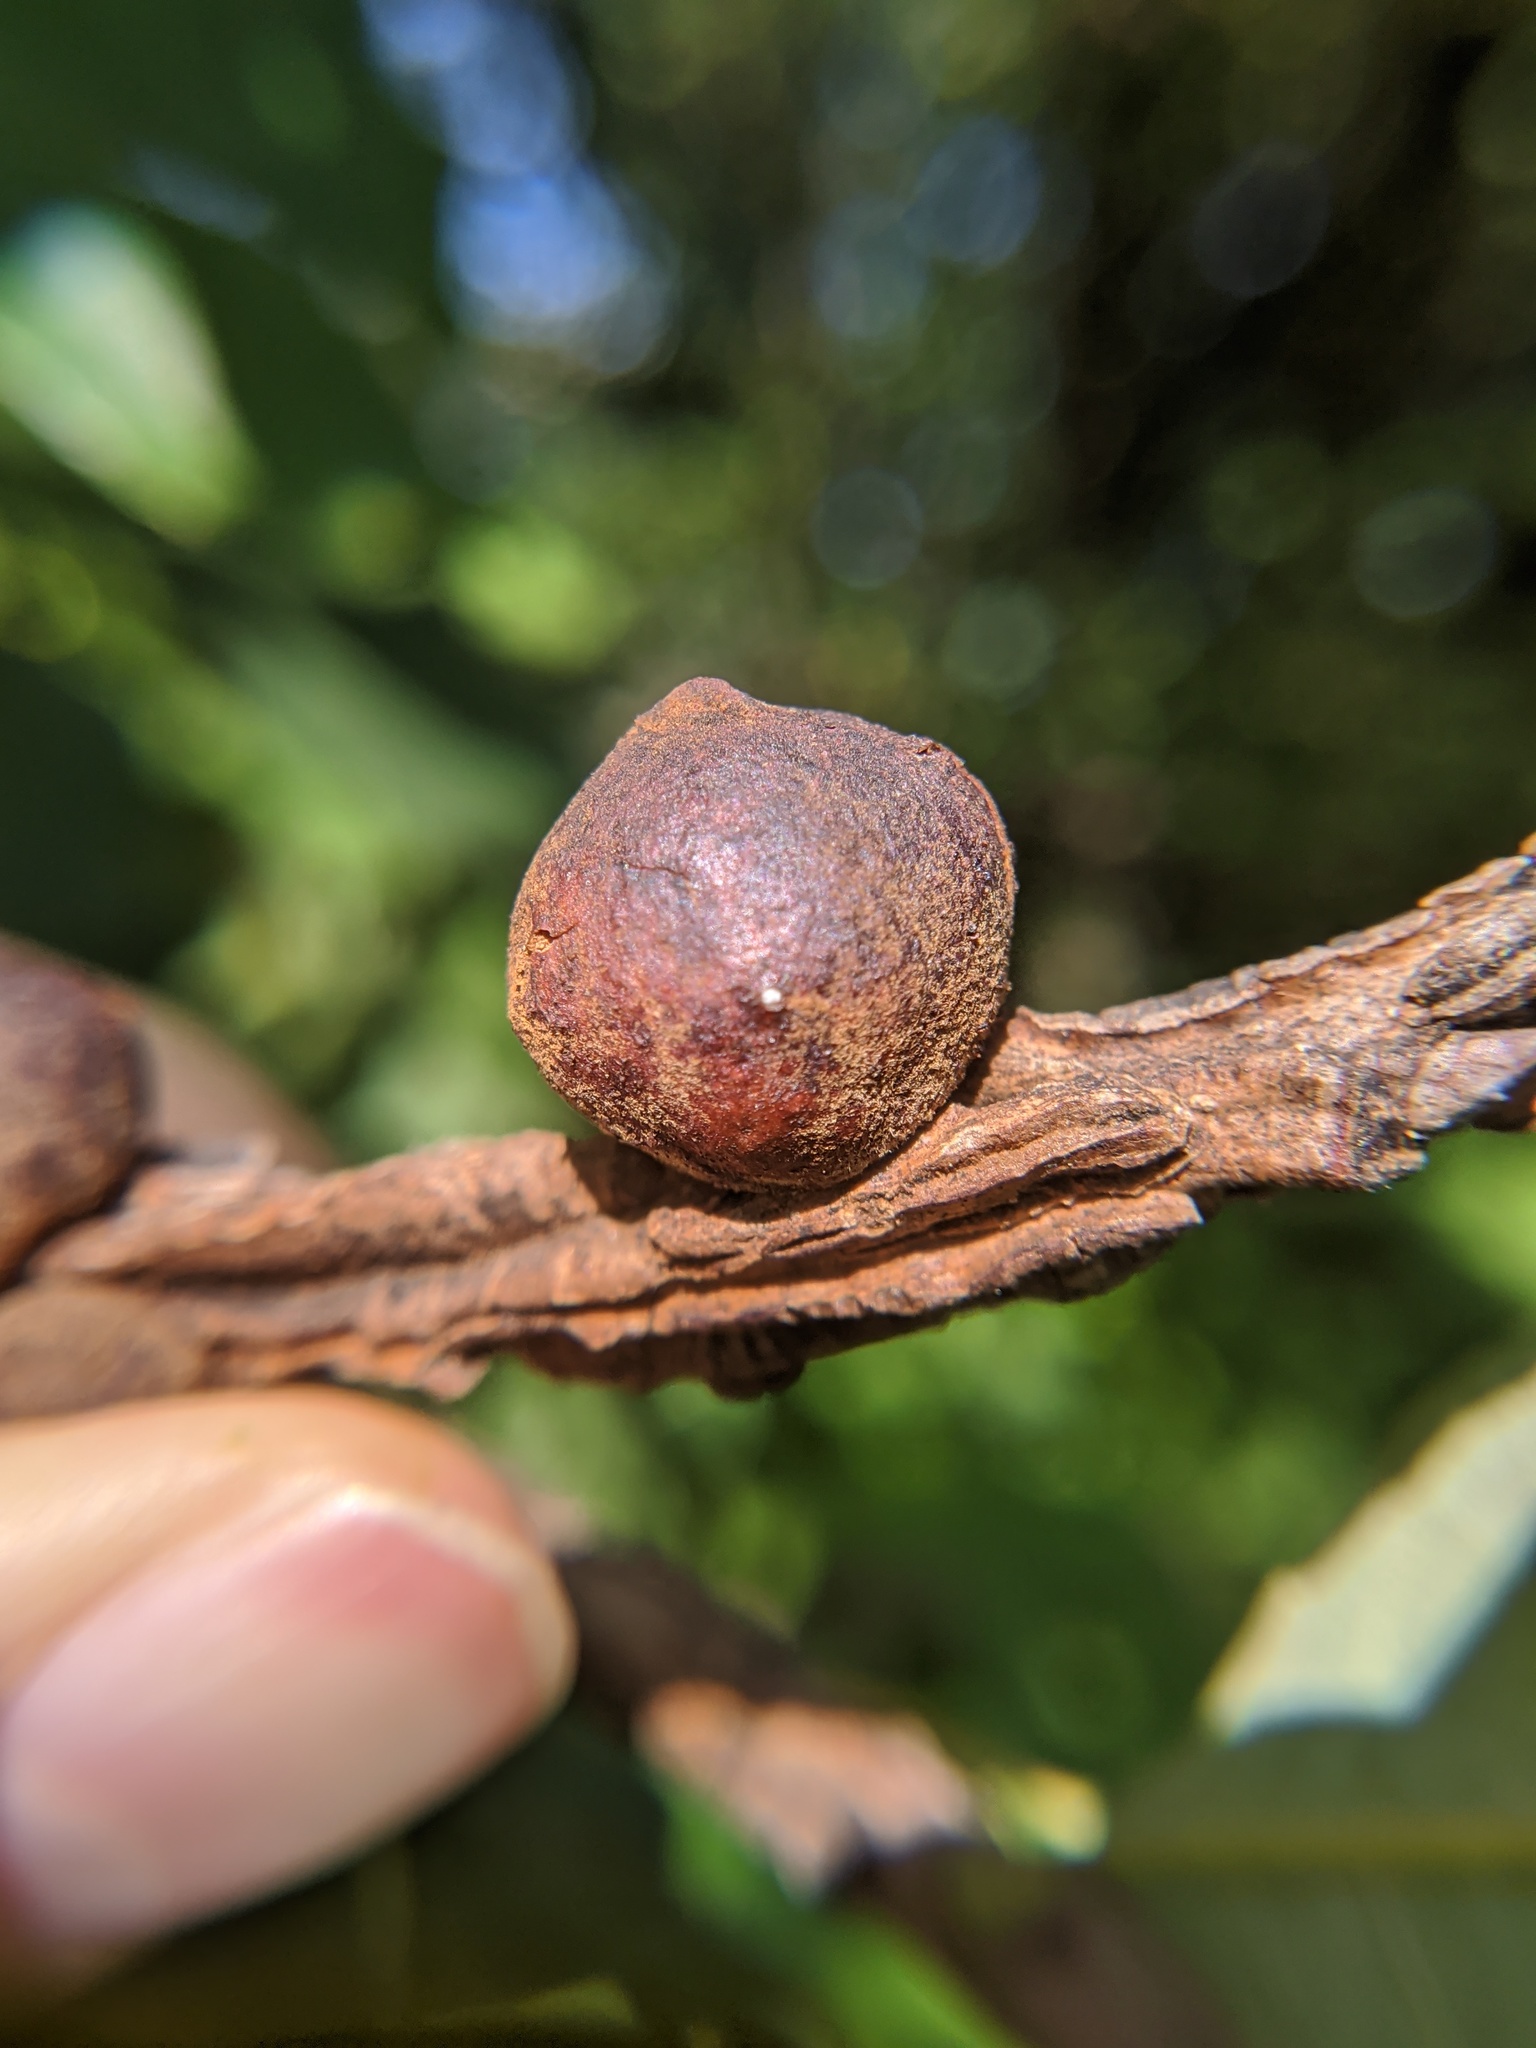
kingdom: Animalia
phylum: Arthropoda
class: Insecta
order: Hymenoptera
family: Cynipidae
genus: Disholcaspis
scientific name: Disholcaspis
